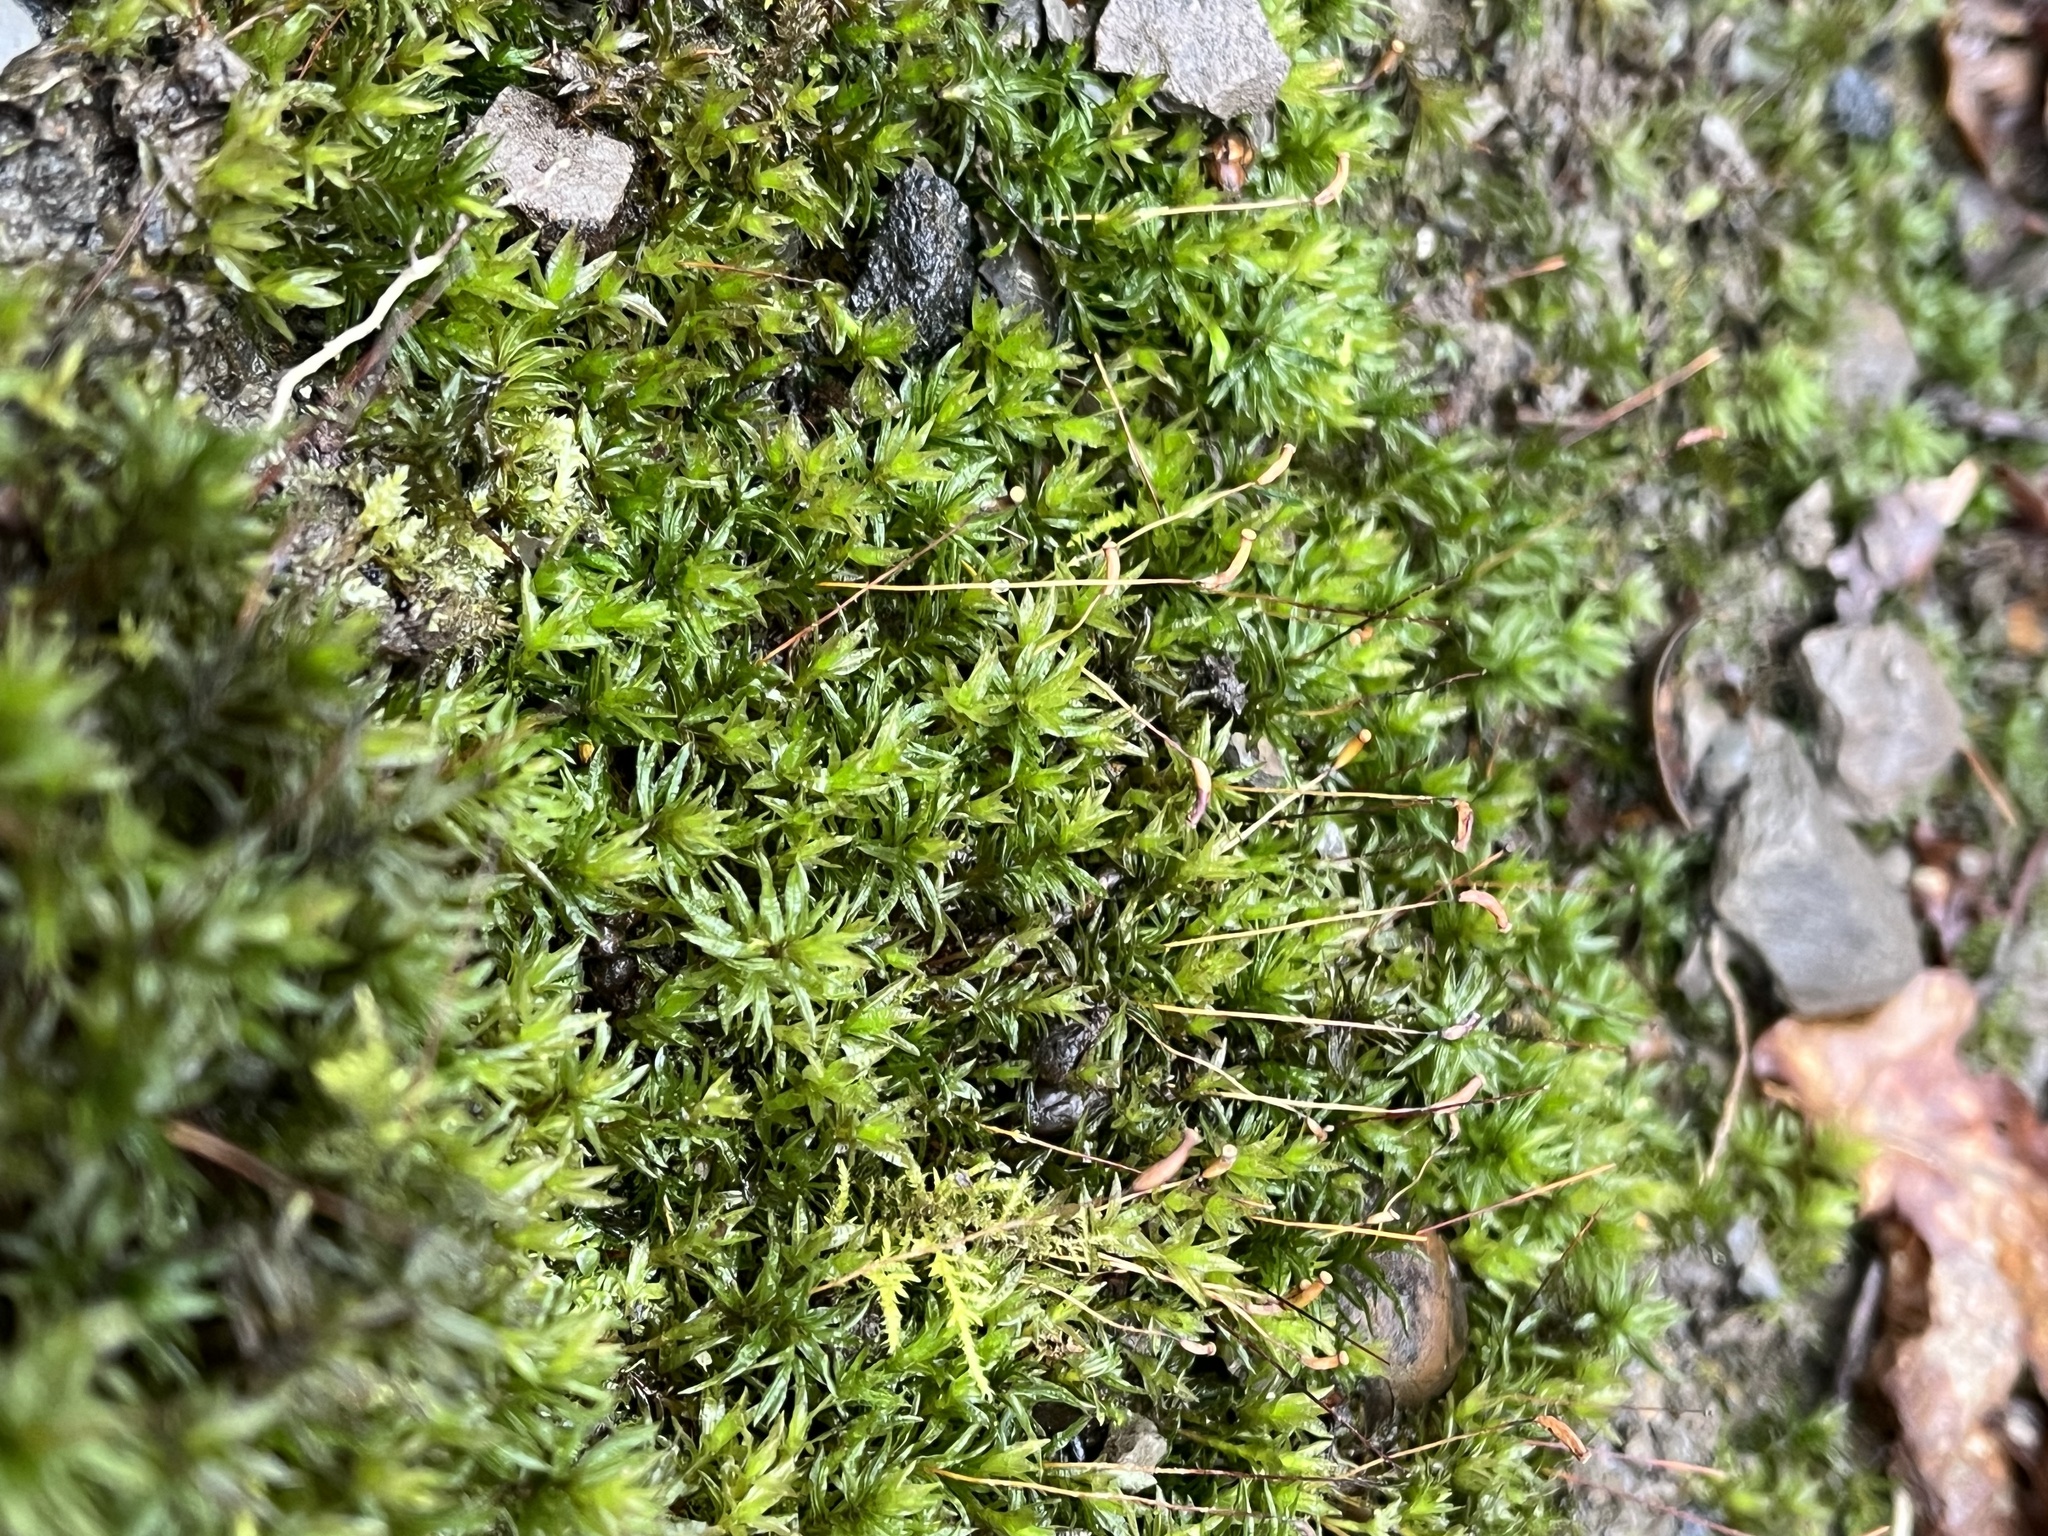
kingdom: Plantae
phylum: Bryophyta
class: Polytrichopsida
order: Polytrichales
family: Polytrichaceae
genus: Atrichum
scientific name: Atrichum undulatum
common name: Common smoothcap
